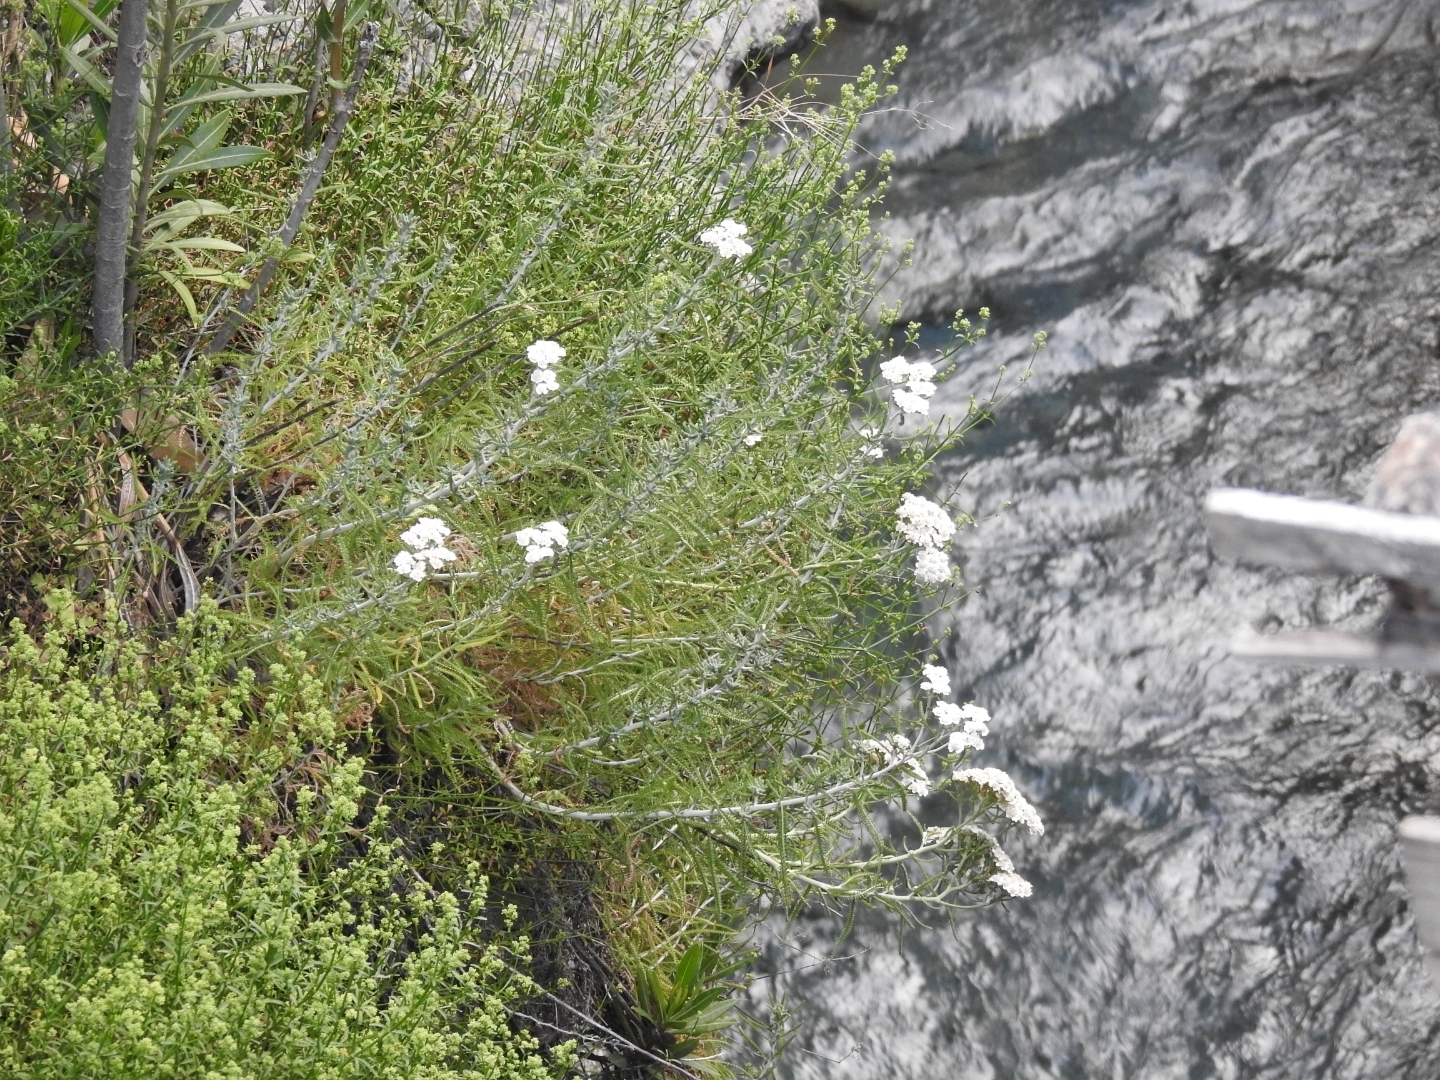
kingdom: Plantae
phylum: Tracheophyta
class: Magnoliopsida
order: Asterales
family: Asteraceae
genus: Achillea
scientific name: Achillea cretica
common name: Chamomile-leaved lavender-cotton
